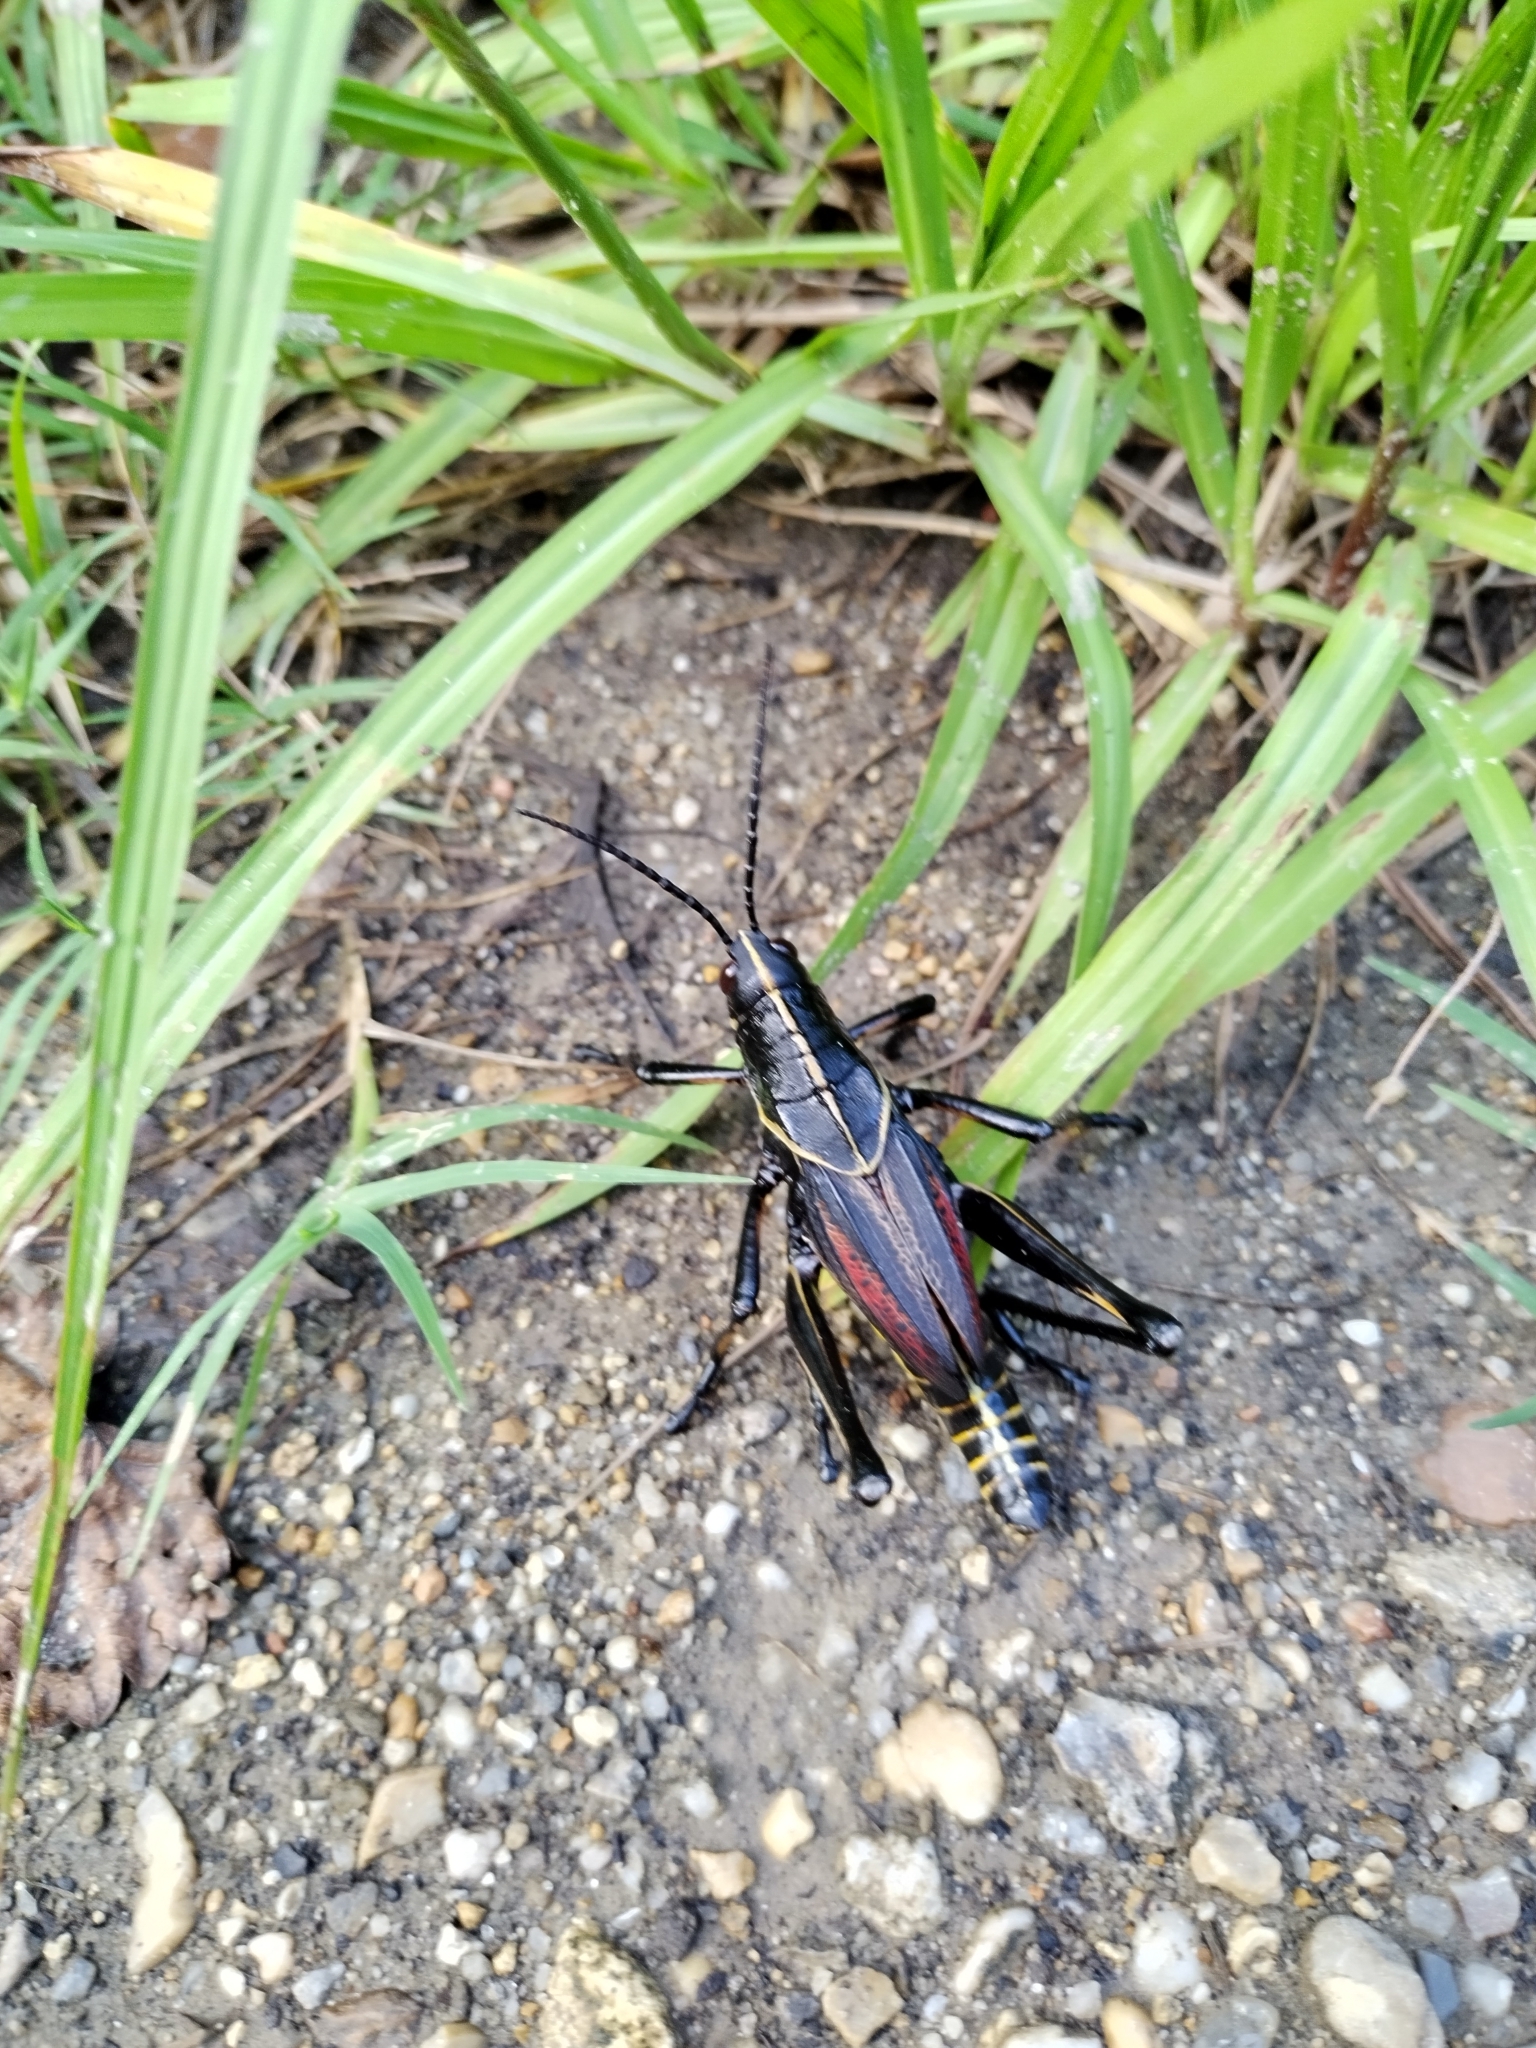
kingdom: Animalia
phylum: Arthropoda
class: Insecta
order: Orthoptera
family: Romaleidae
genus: Romalea
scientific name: Romalea microptera
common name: Eastern lubber grasshopper
